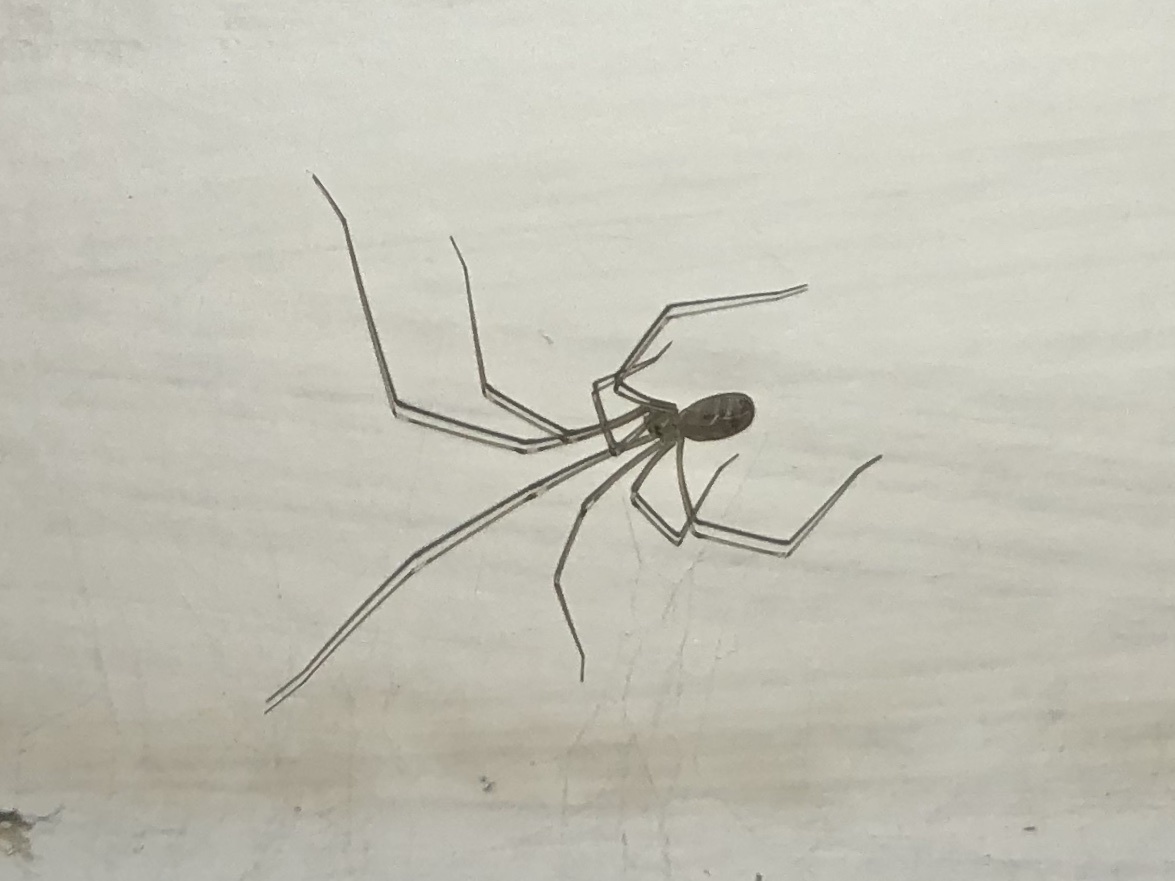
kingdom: Animalia
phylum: Arthropoda
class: Arachnida
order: Araneae
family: Pholcidae
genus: Pholcus
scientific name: Pholcus phalangioides
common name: Longbodied cellar spider
